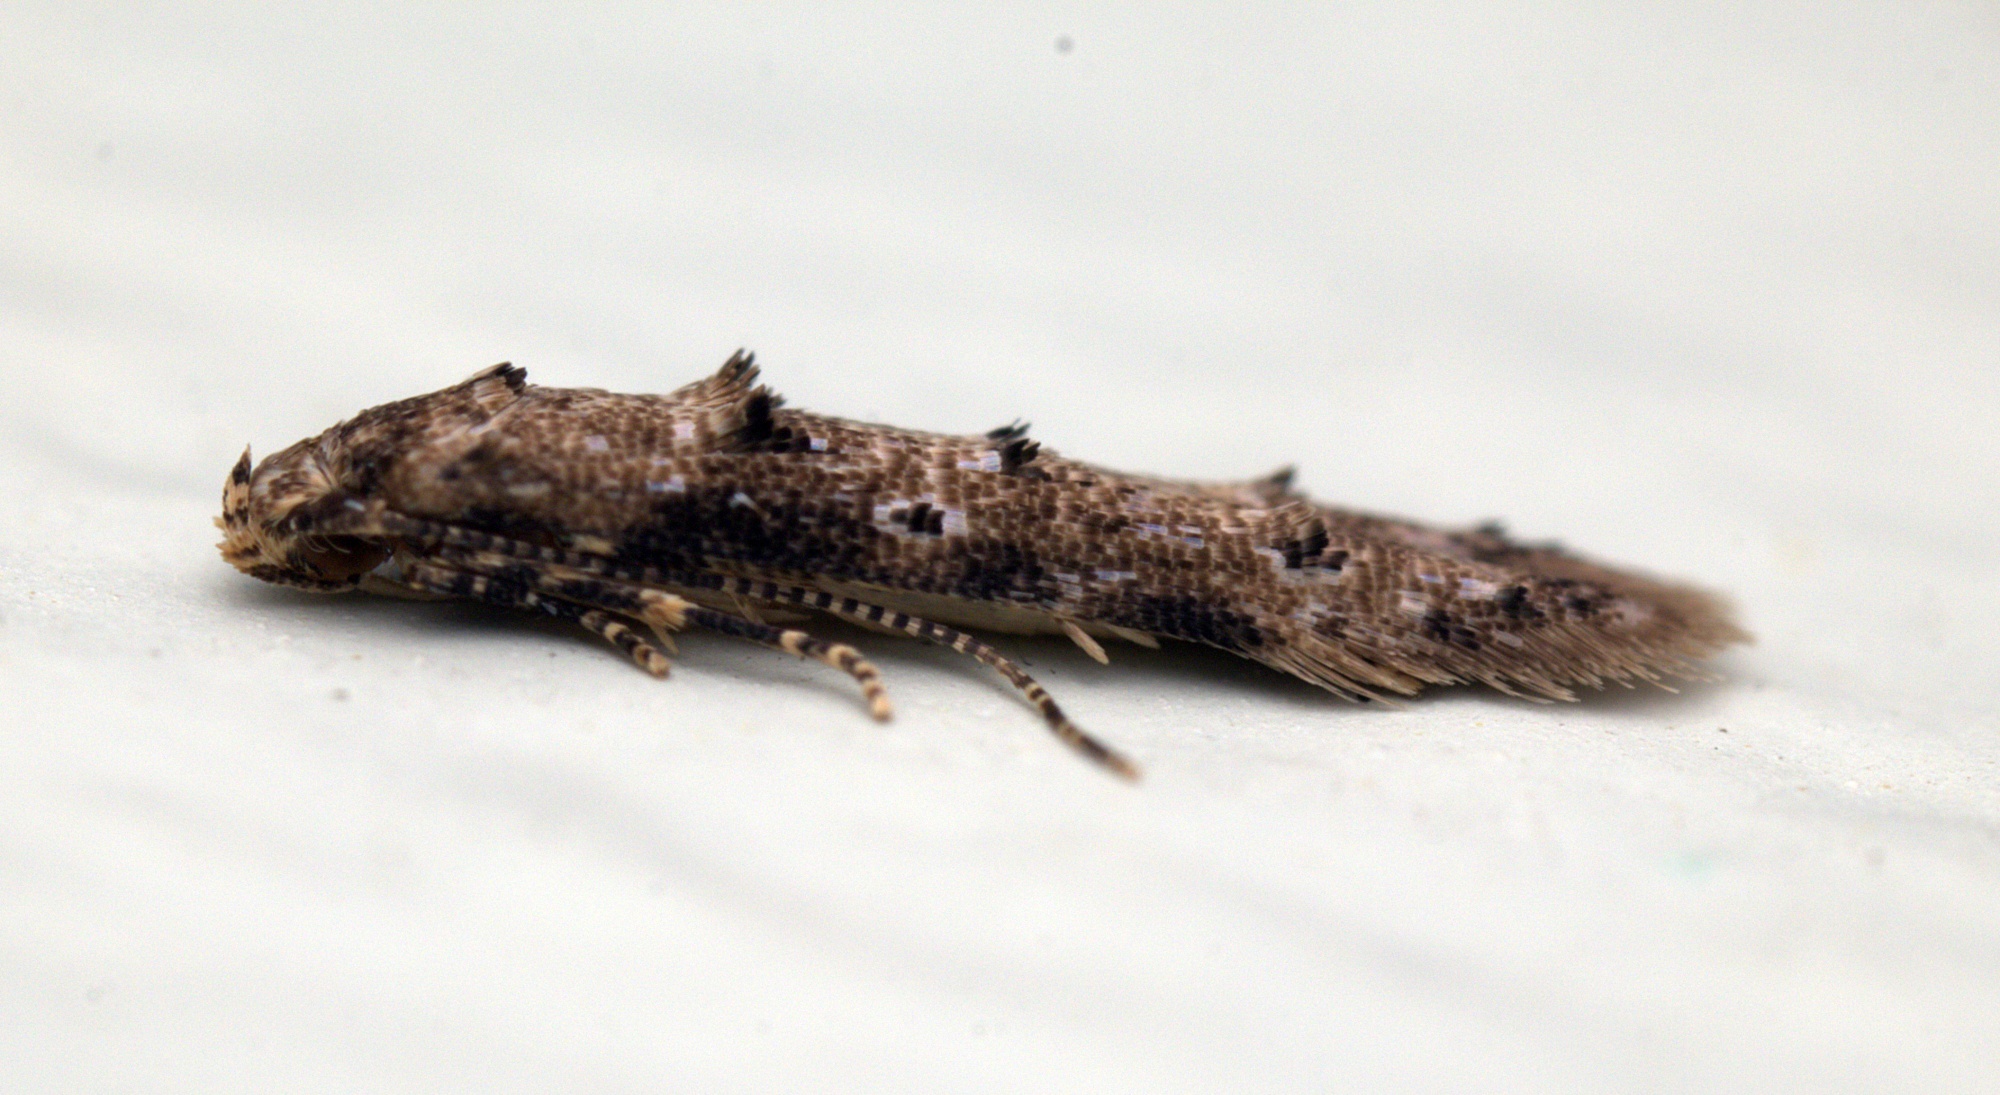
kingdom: Animalia
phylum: Arthropoda
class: Insecta
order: Lepidoptera
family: Elachistidae
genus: Microcolona
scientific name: Microcolona limodes
